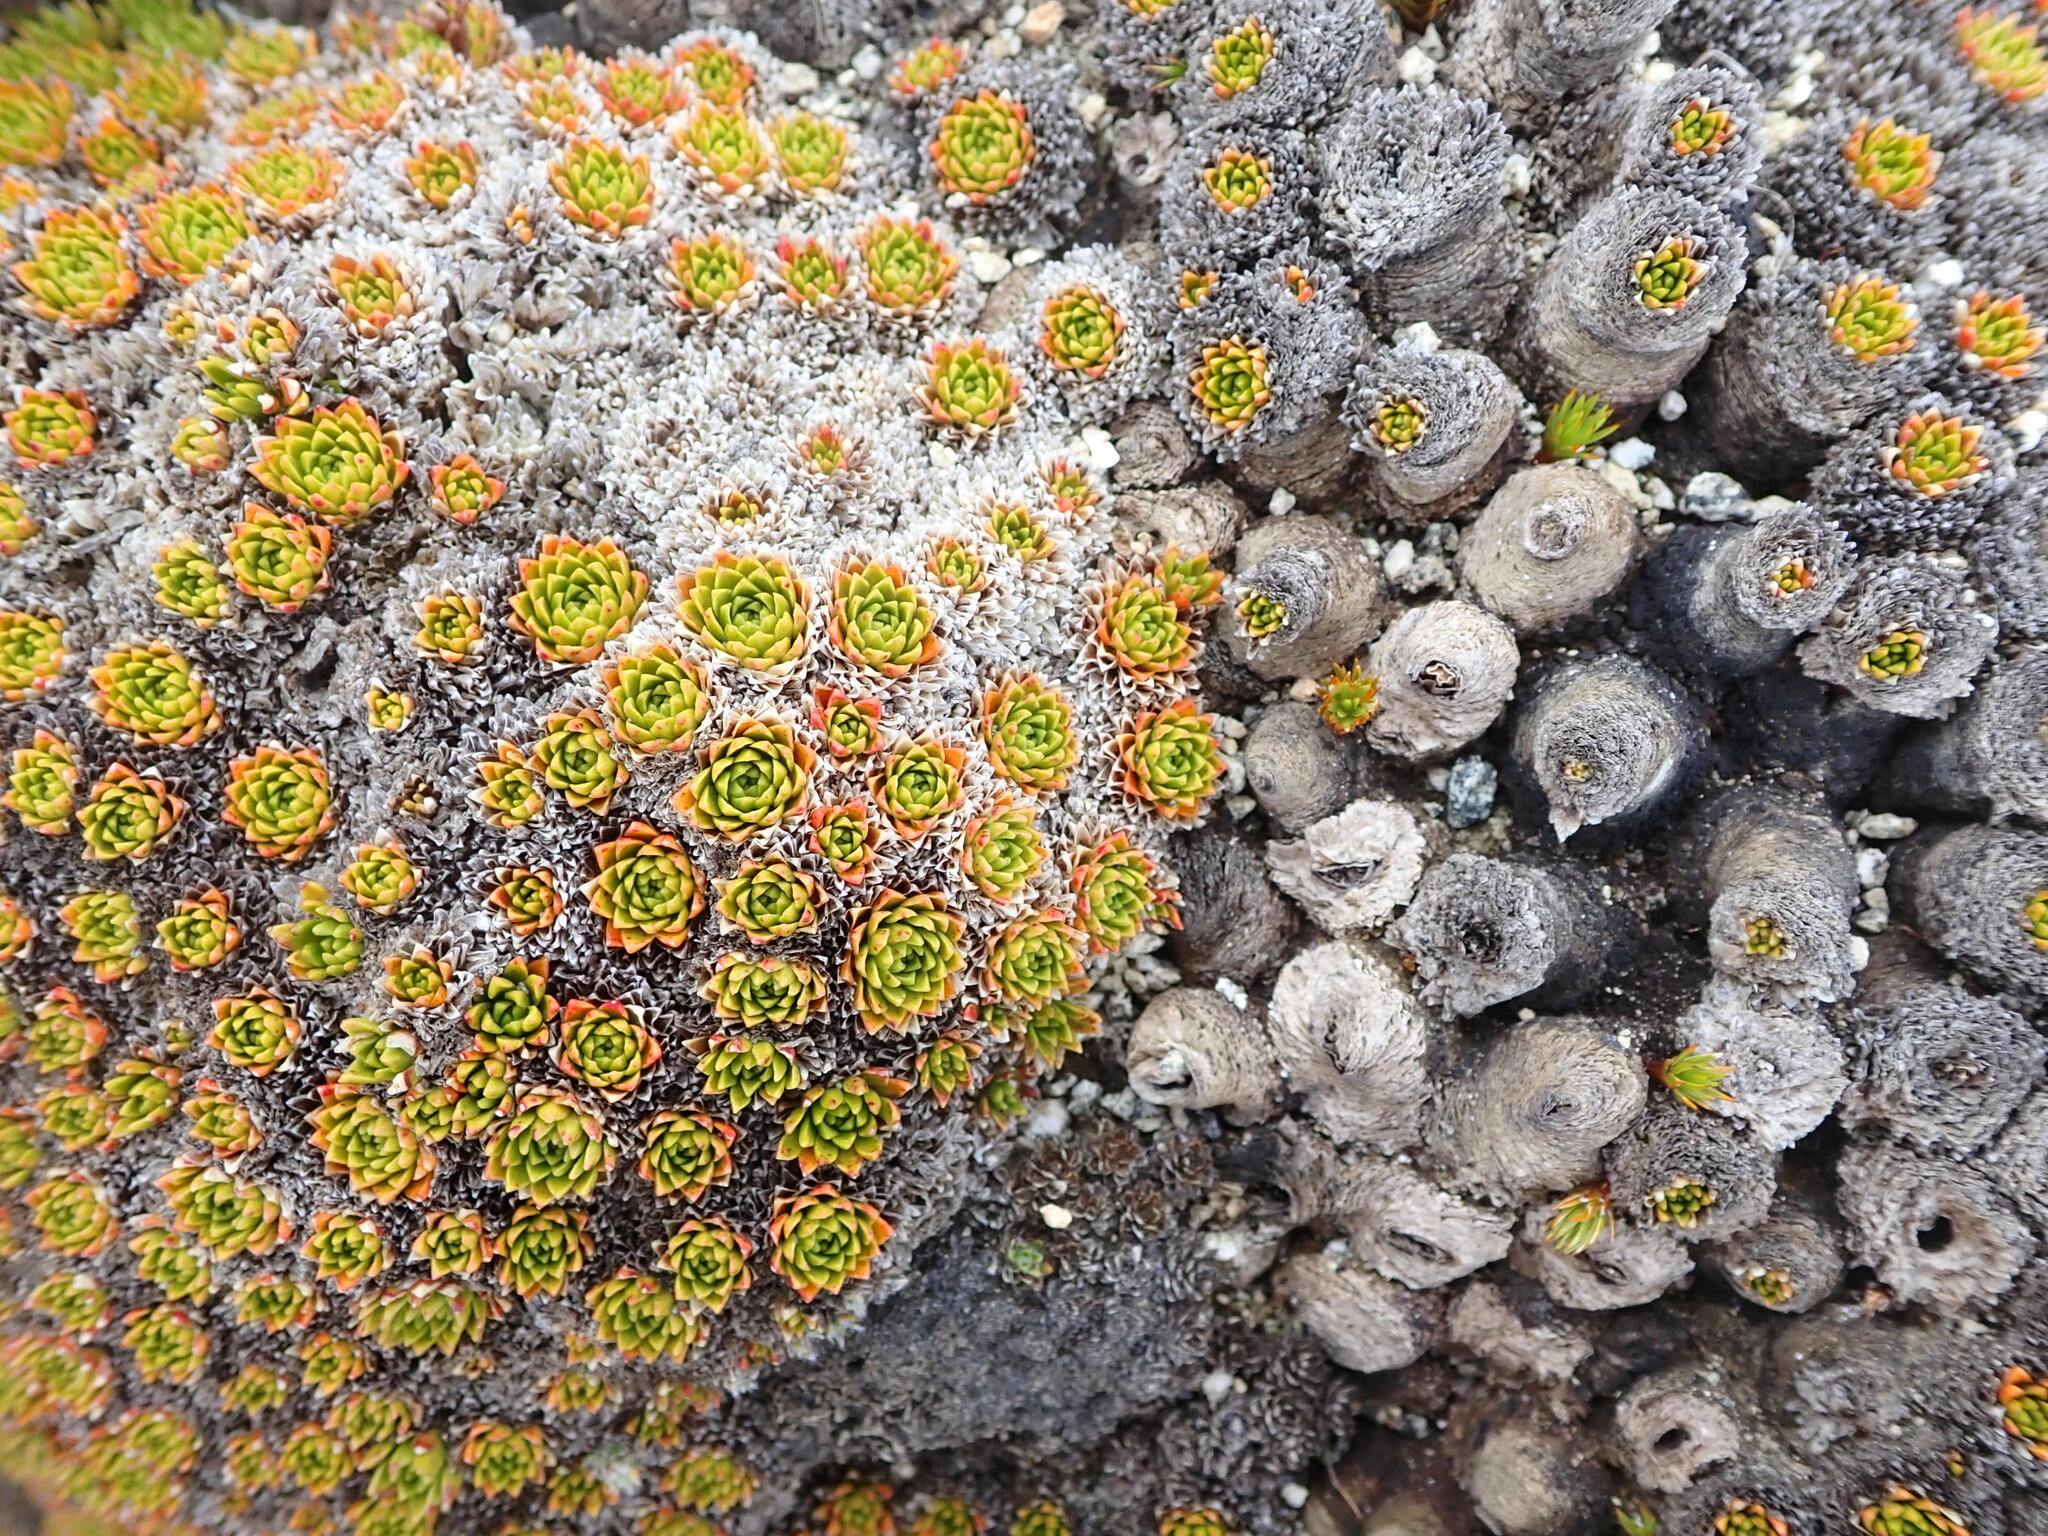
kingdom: Plantae
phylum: Tracheophyta
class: Magnoliopsida
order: Caryophyllales
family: Montiaceae
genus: Hectorella
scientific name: Hectorella caespitosa
